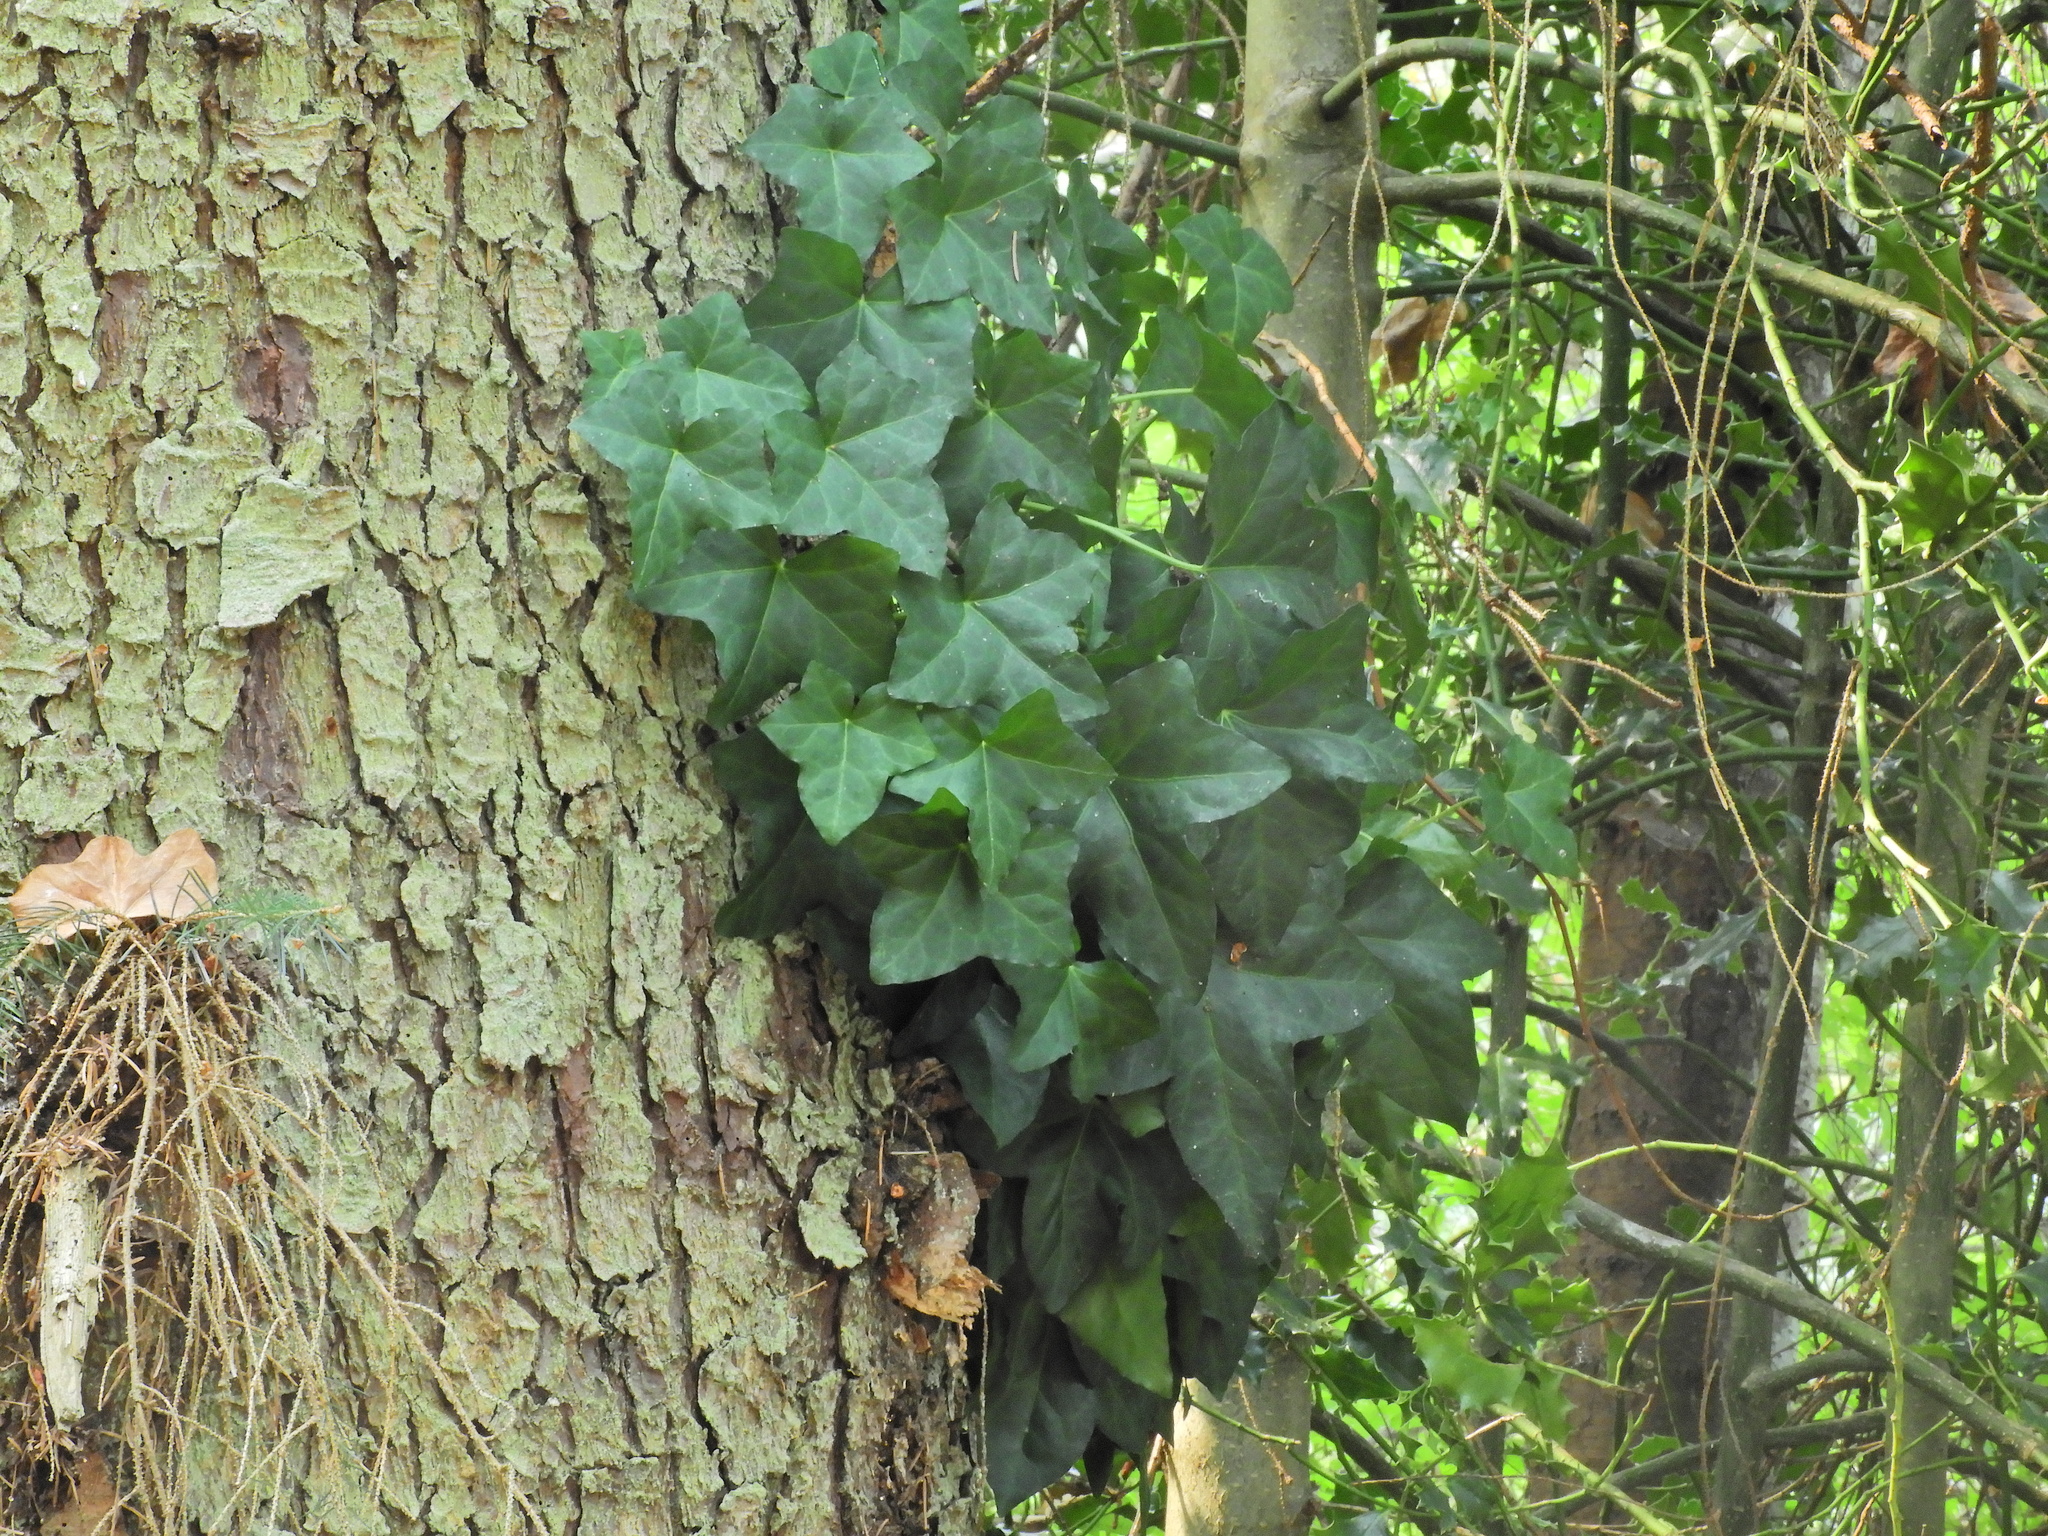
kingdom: Plantae
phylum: Tracheophyta
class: Magnoliopsida
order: Apiales
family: Araliaceae
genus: Hedera
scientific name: Hedera helix
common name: Ivy
